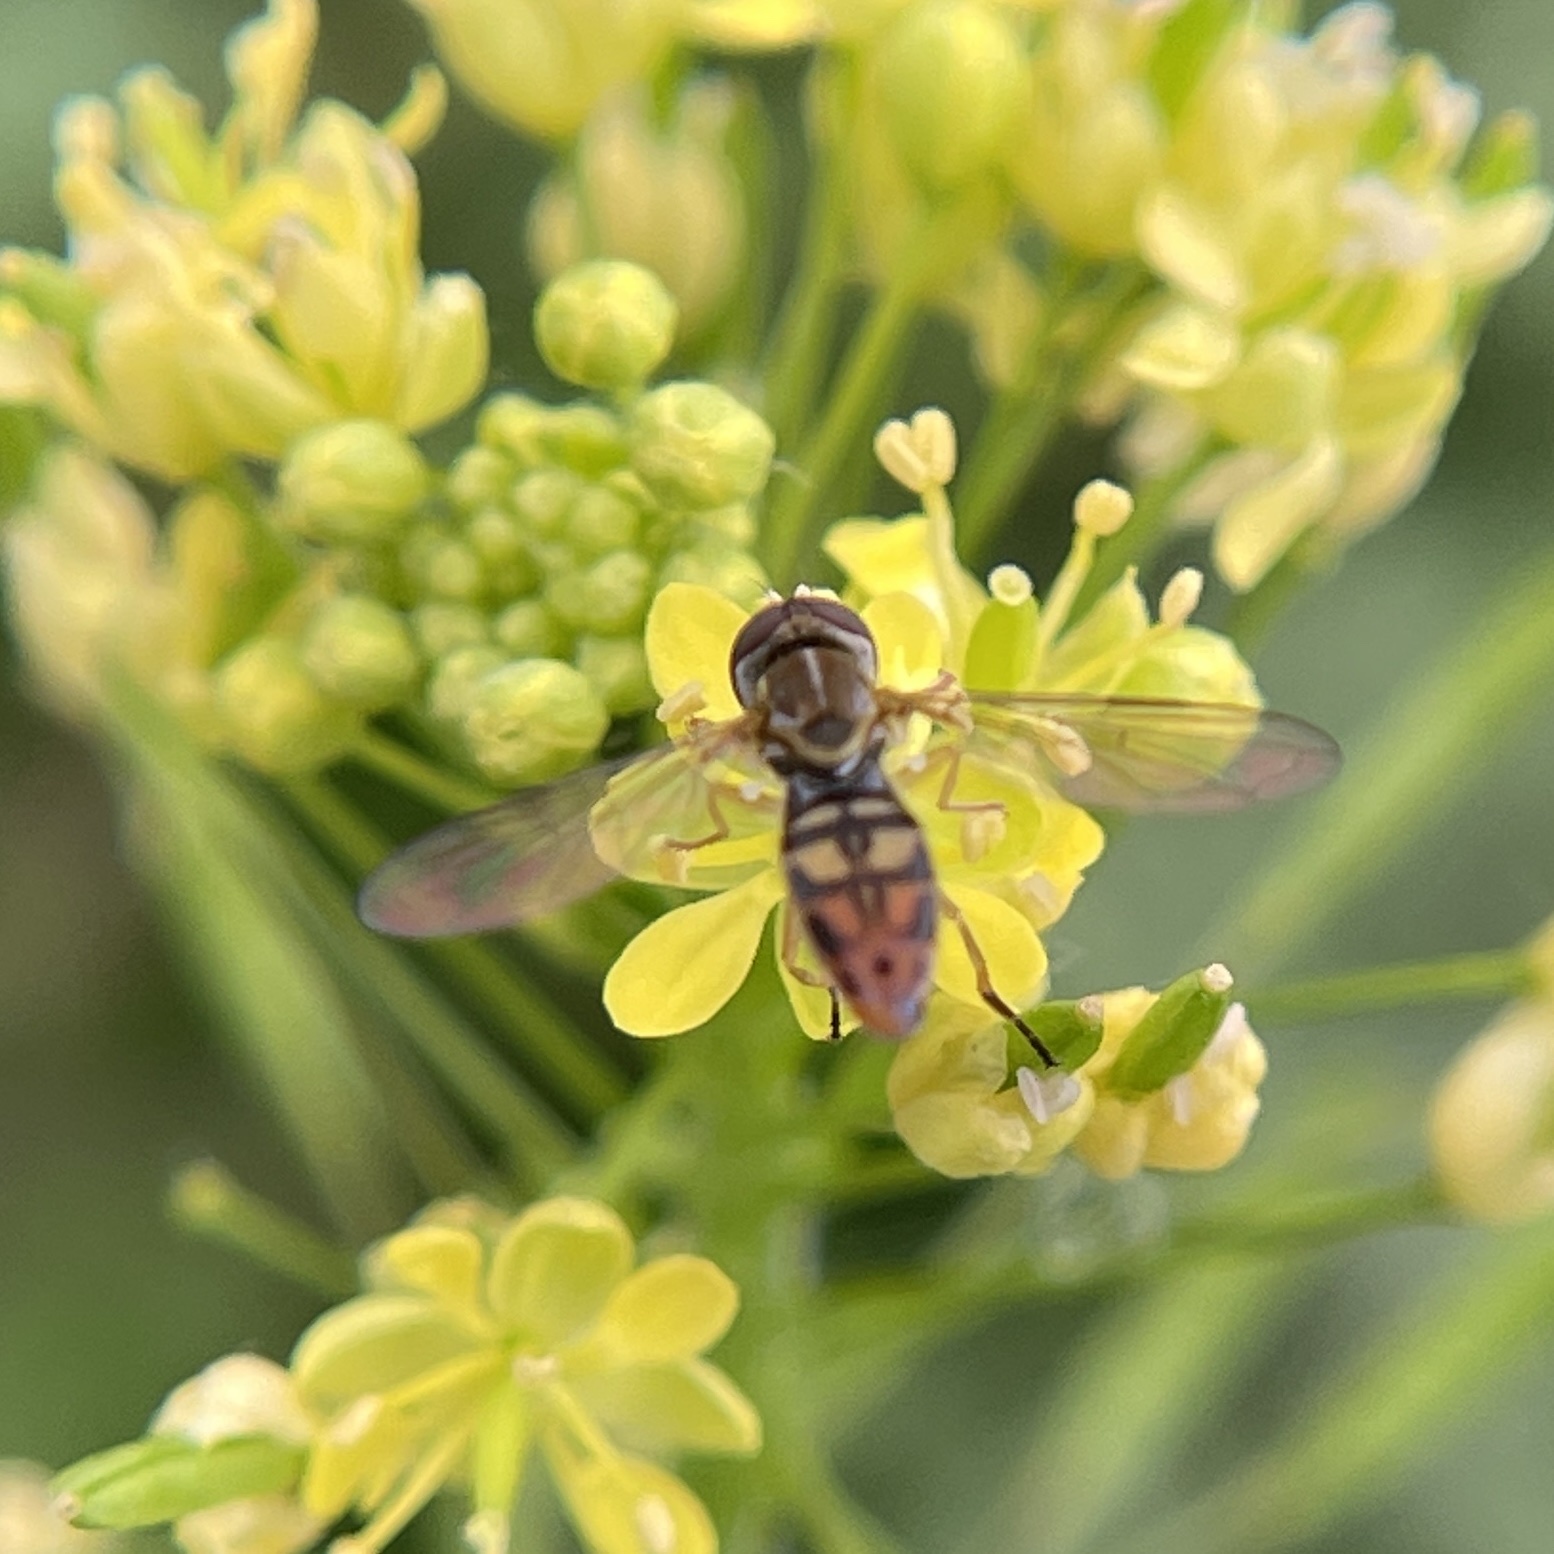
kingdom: Animalia
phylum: Arthropoda
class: Insecta
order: Diptera
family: Syrphidae
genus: Toxomerus
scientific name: Toxomerus marginatus
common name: Syrphid fly
